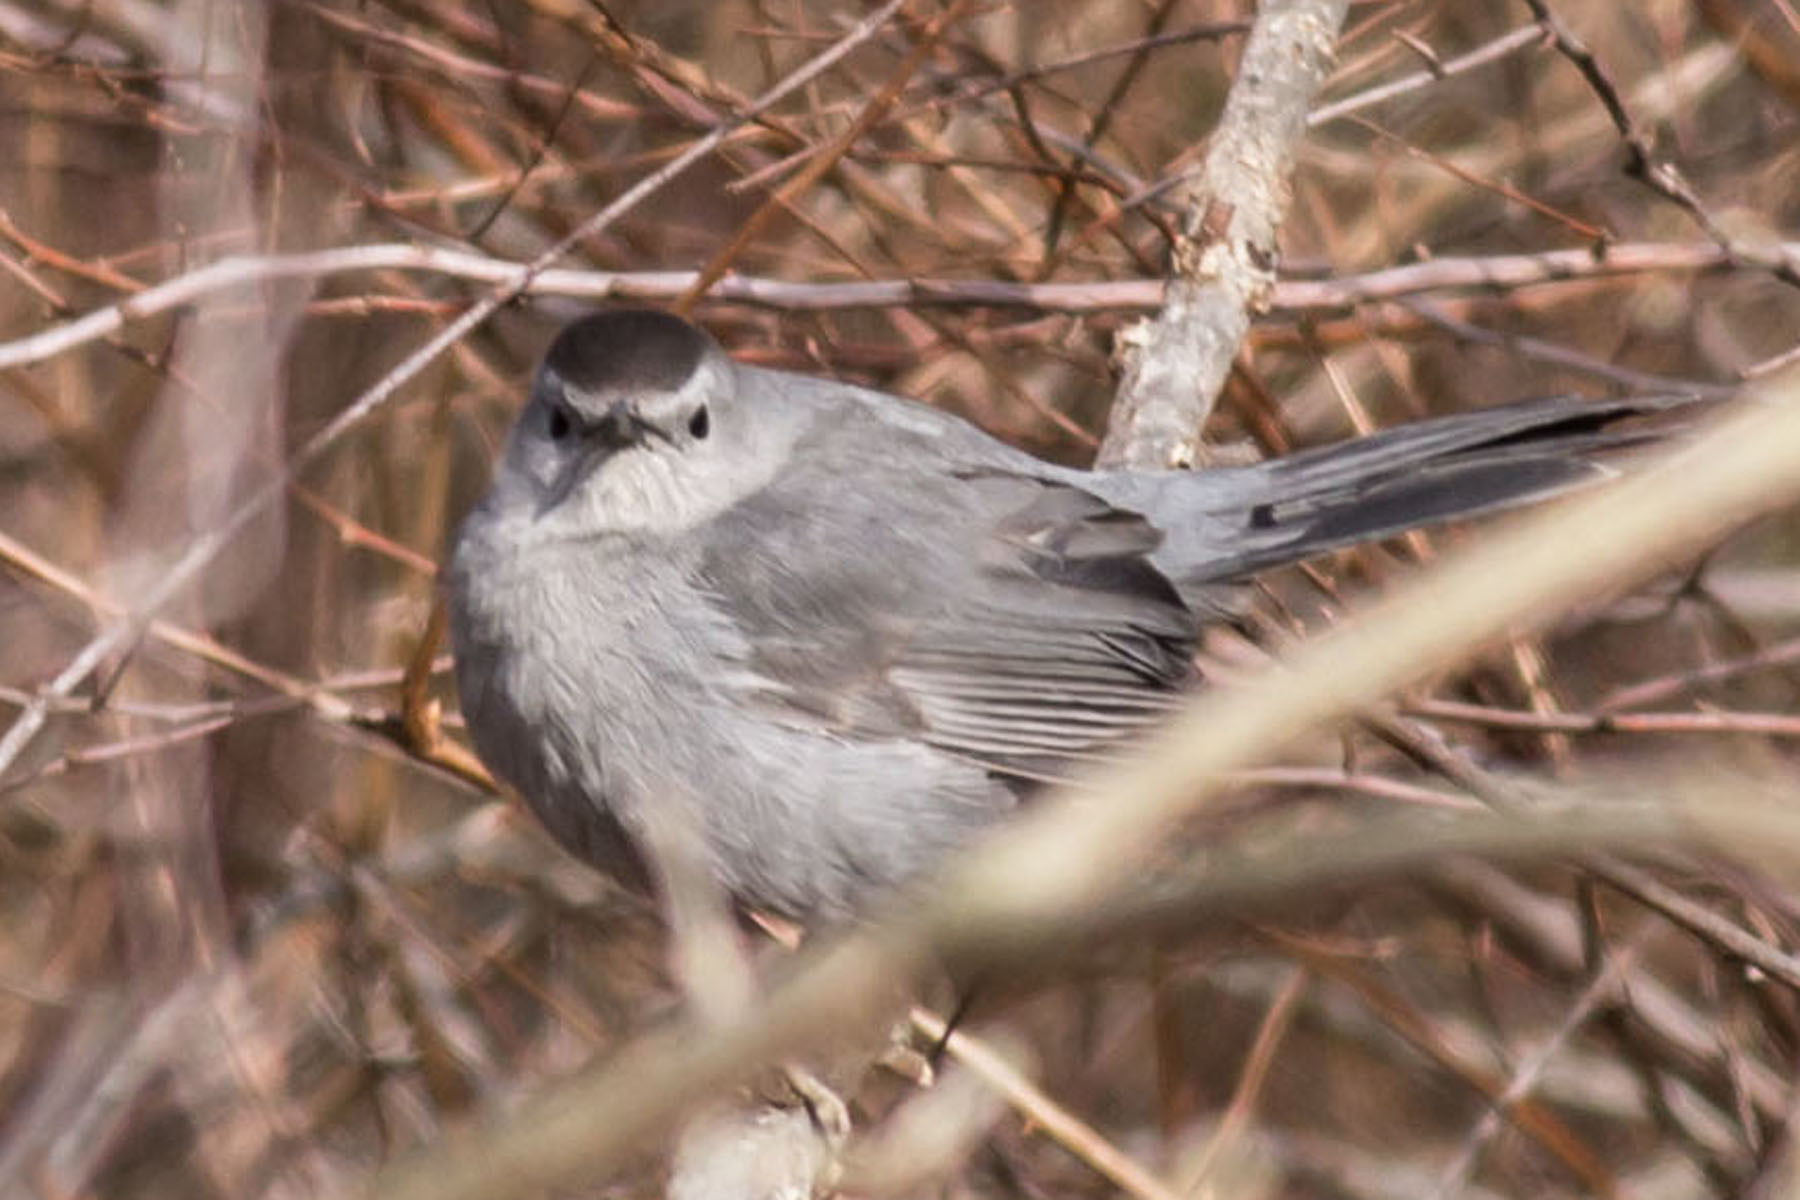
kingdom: Animalia
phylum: Chordata
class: Aves
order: Passeriformes
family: Mimidae
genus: Dumetella
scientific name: Dumetella carolinensis
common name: Gray catbird
